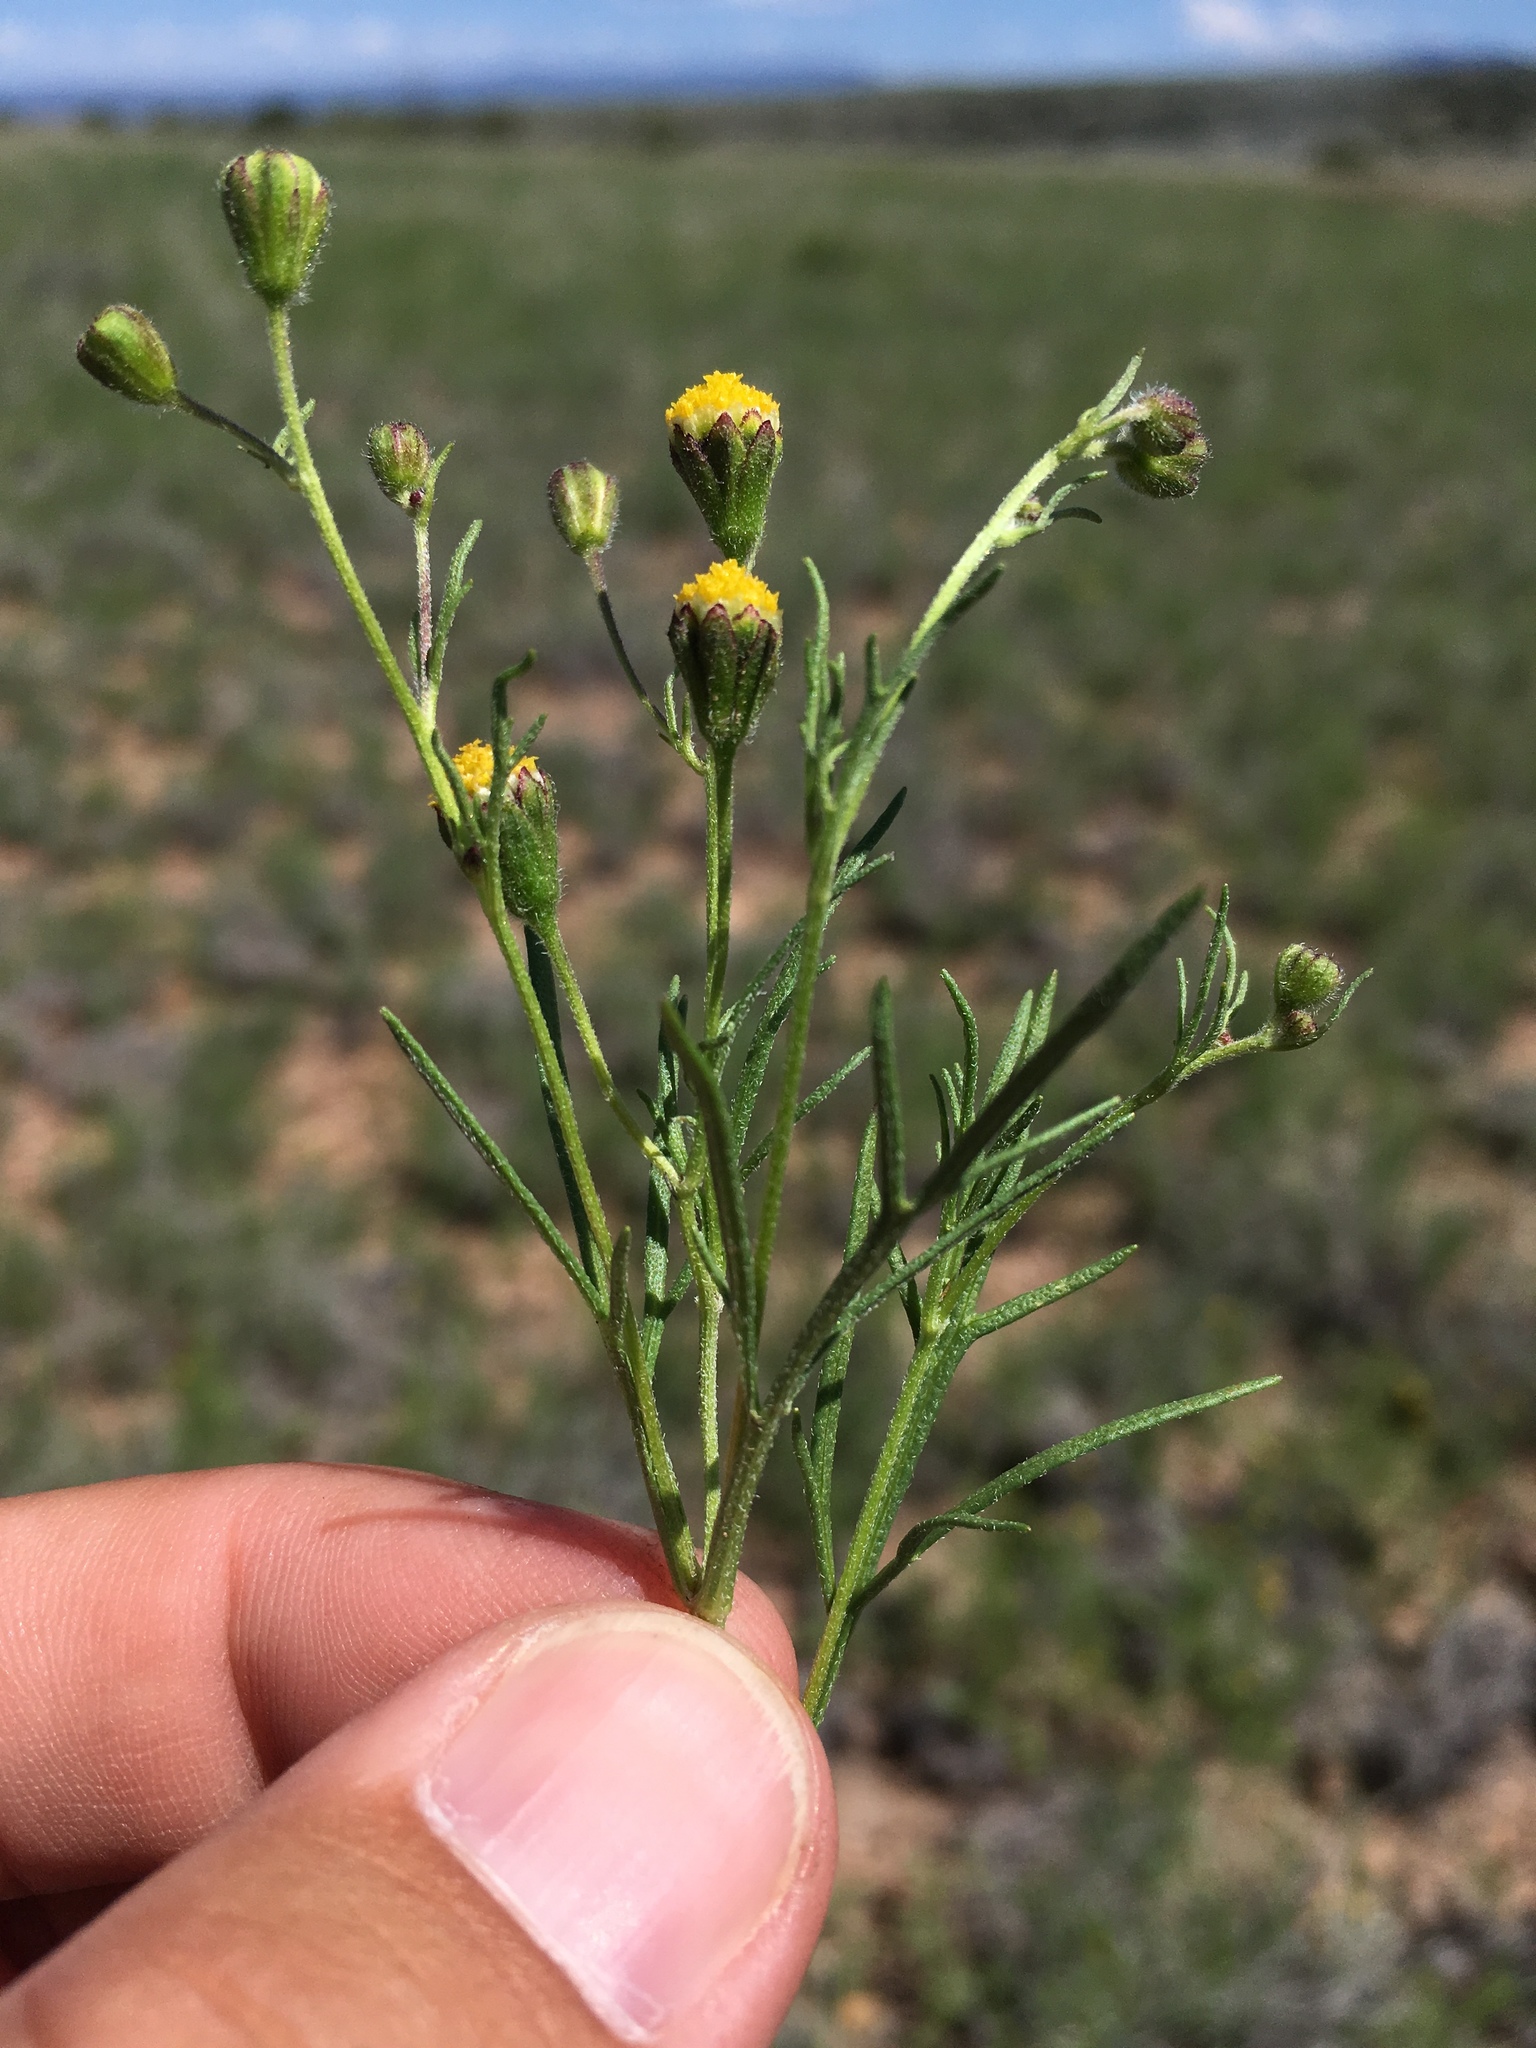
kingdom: Plantae
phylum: Tracheophyta
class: Magnoliopsida
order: Asterales
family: Asteraceae
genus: Picradeniopsis
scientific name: Picradeniopsis multiflora
